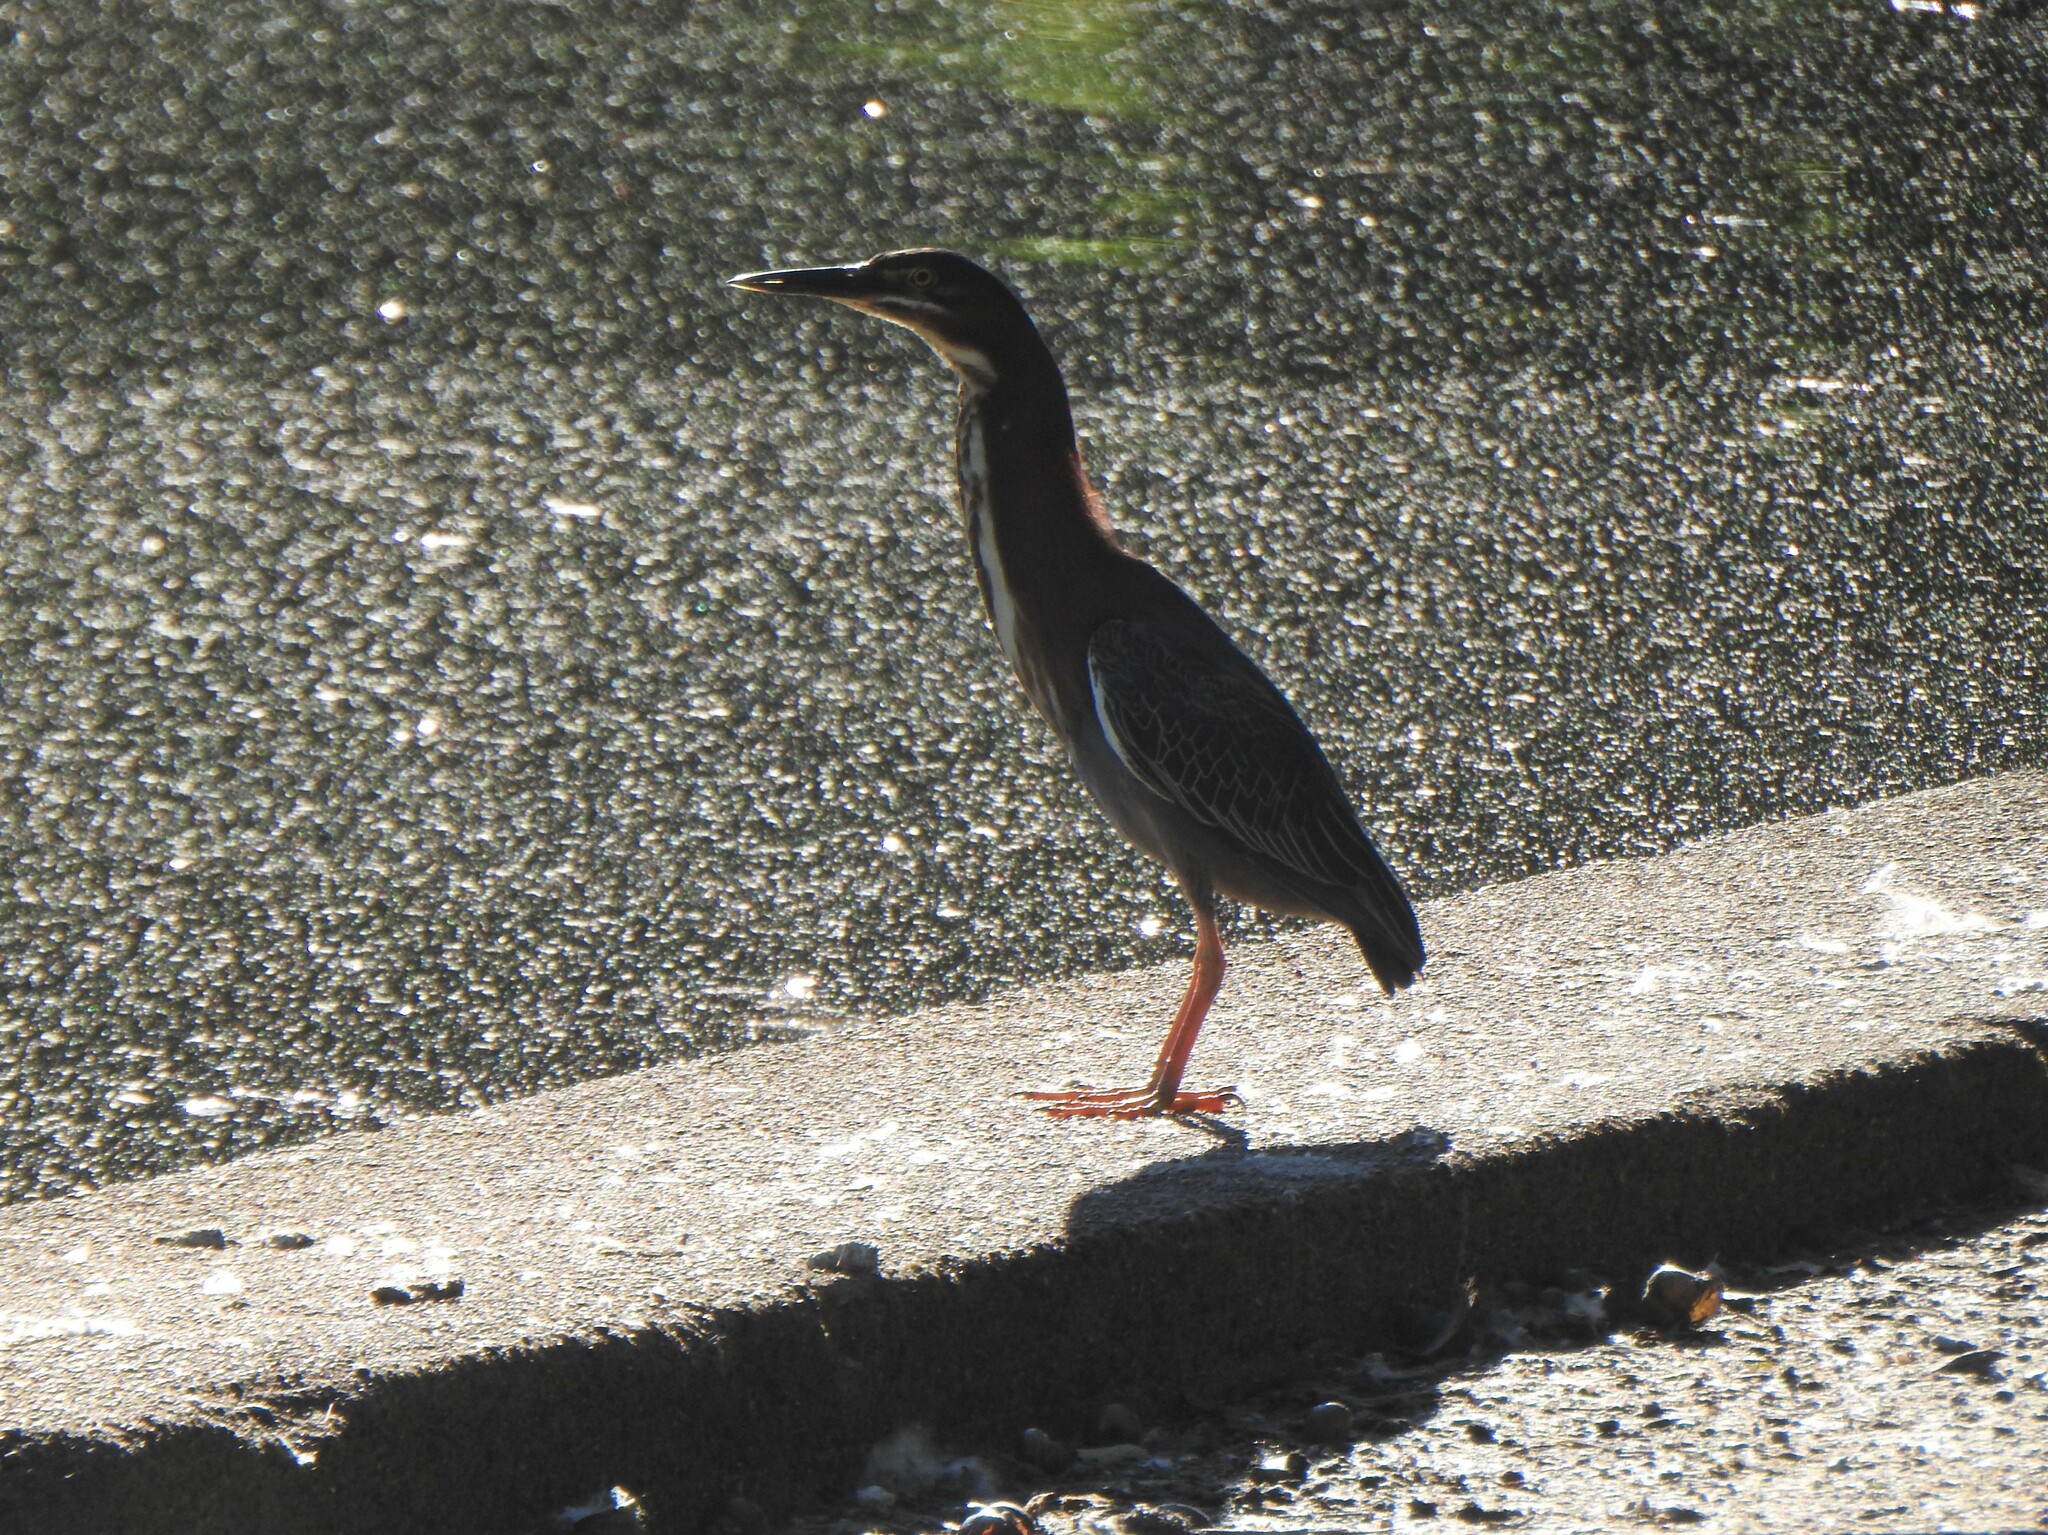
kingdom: Animalia
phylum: Chordata
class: Aves
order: Pelecaniformes
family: Ardeidae
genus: Butorides
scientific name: Butorides virescens
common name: Green heron
